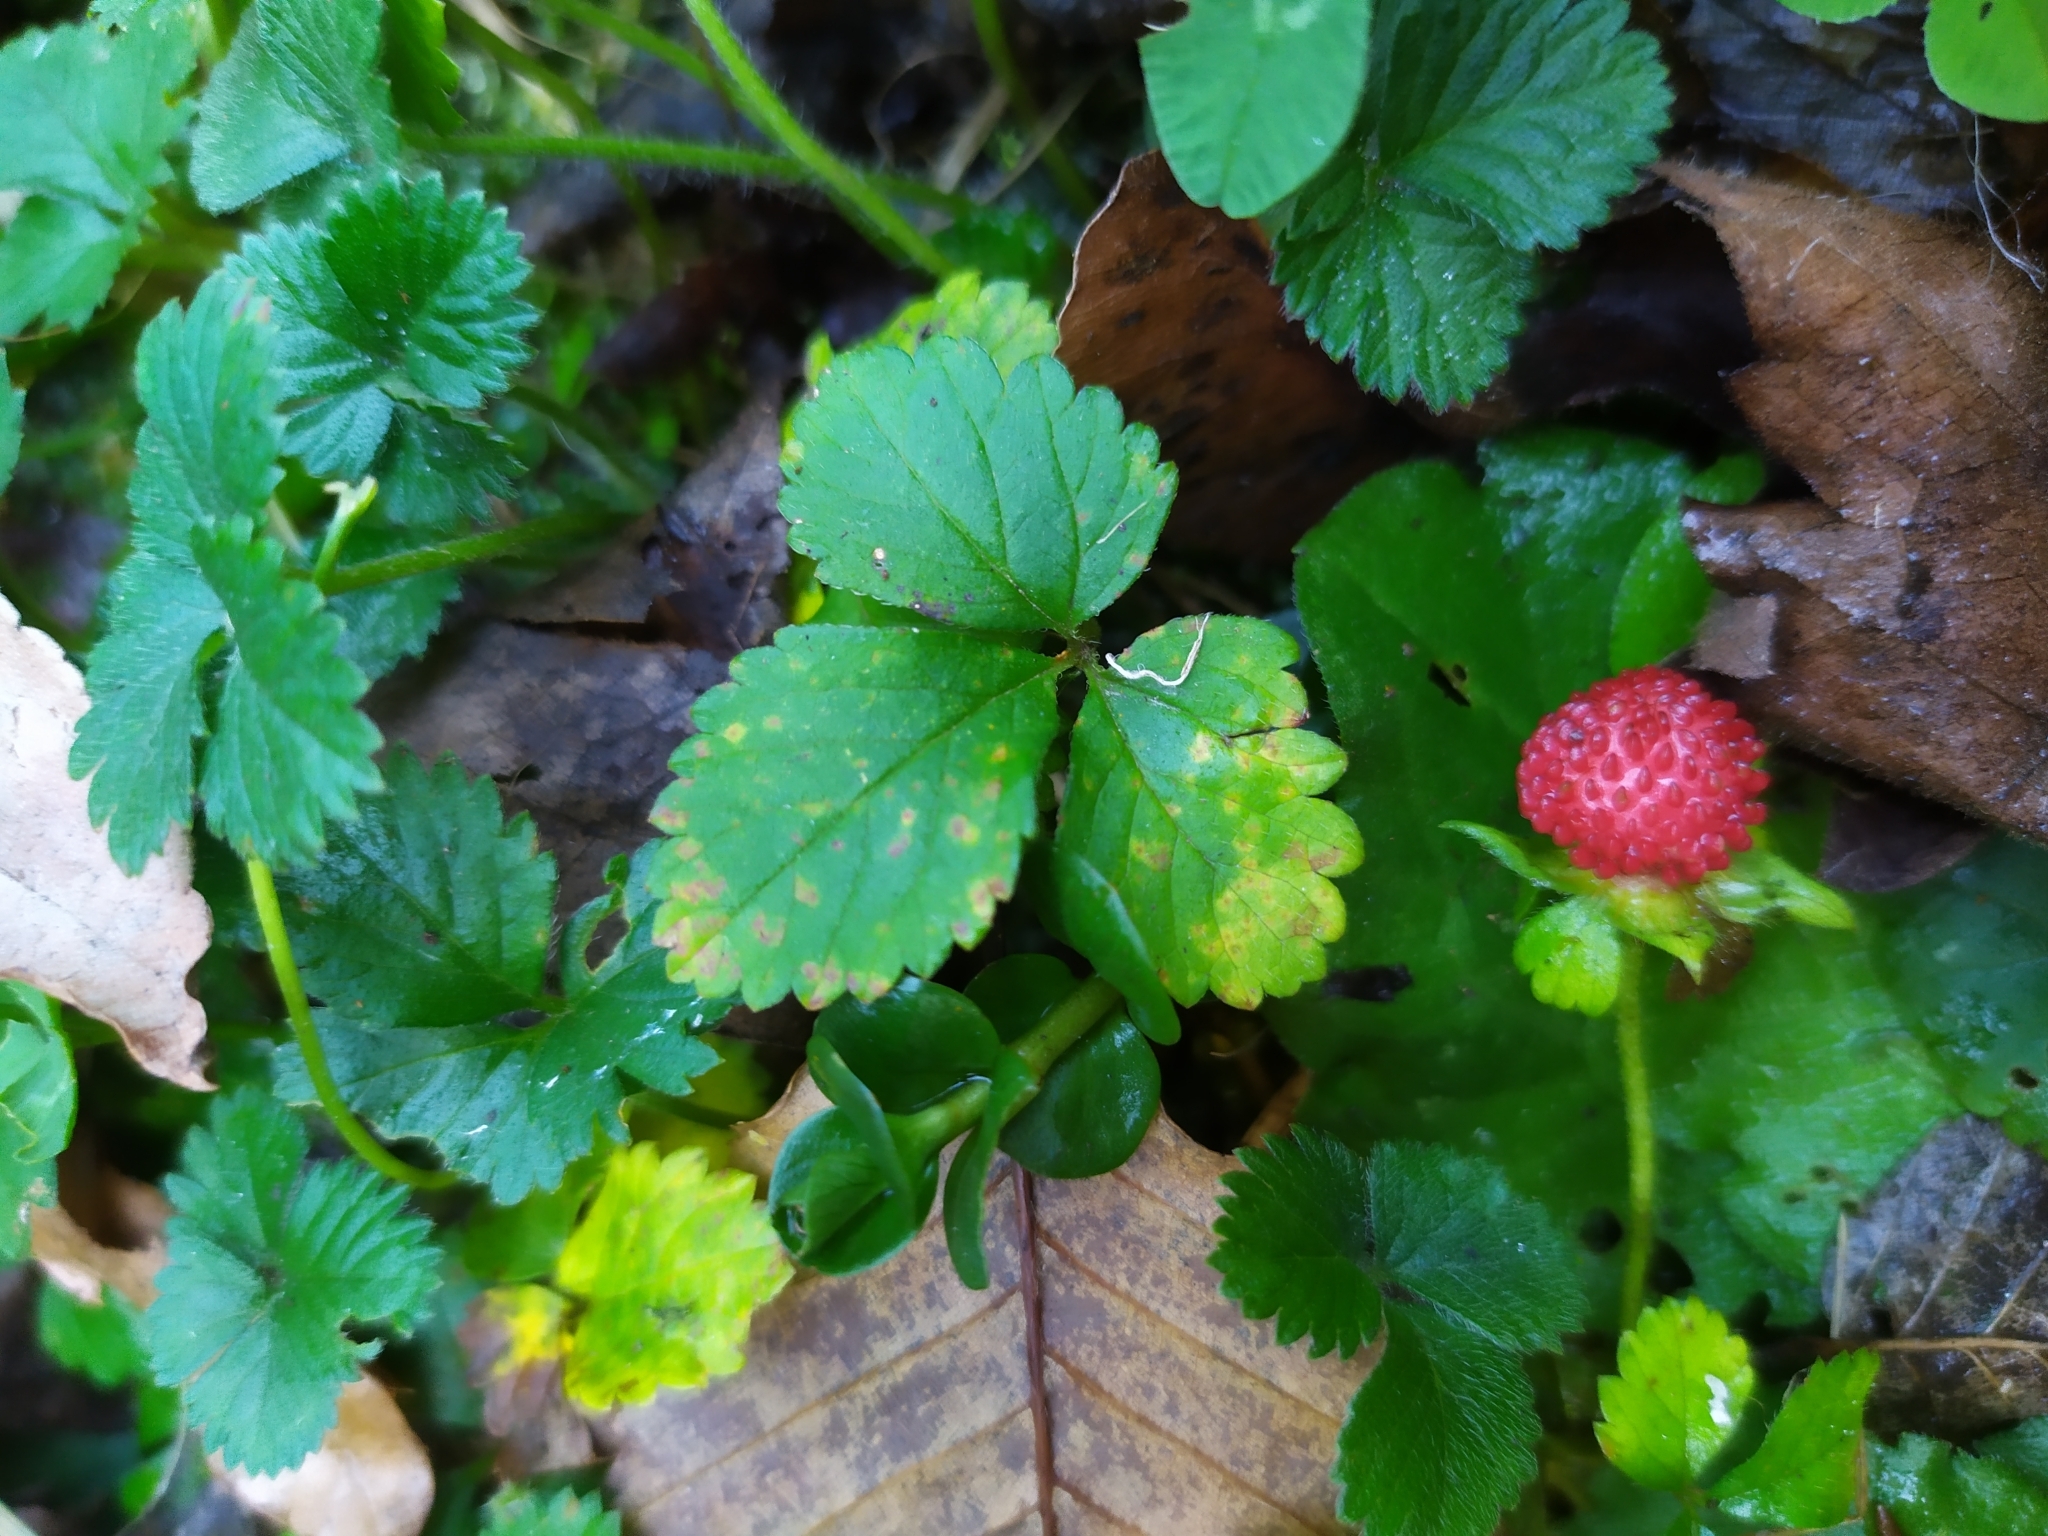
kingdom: Fungi
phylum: Basidiomycota
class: Pucciniomycetes
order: Pucciniales
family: Phragmidiaceae
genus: Phragmidium
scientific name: Phragmidium mexicanum
